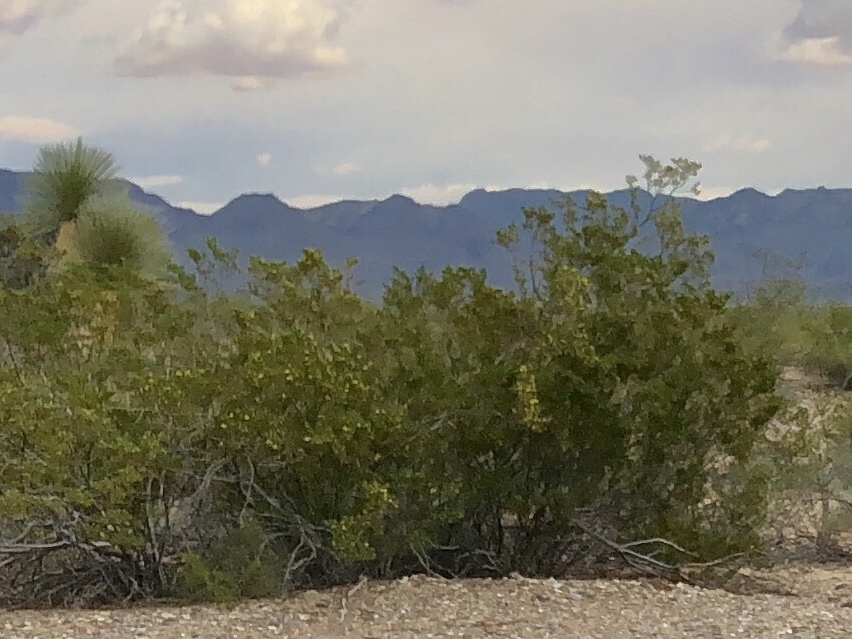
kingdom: Plantae
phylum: Tracheophyta
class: Magnoliopsida
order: Zygophyllales
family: Zygophyllaceae
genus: Larrea
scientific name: Larrea tridentata
